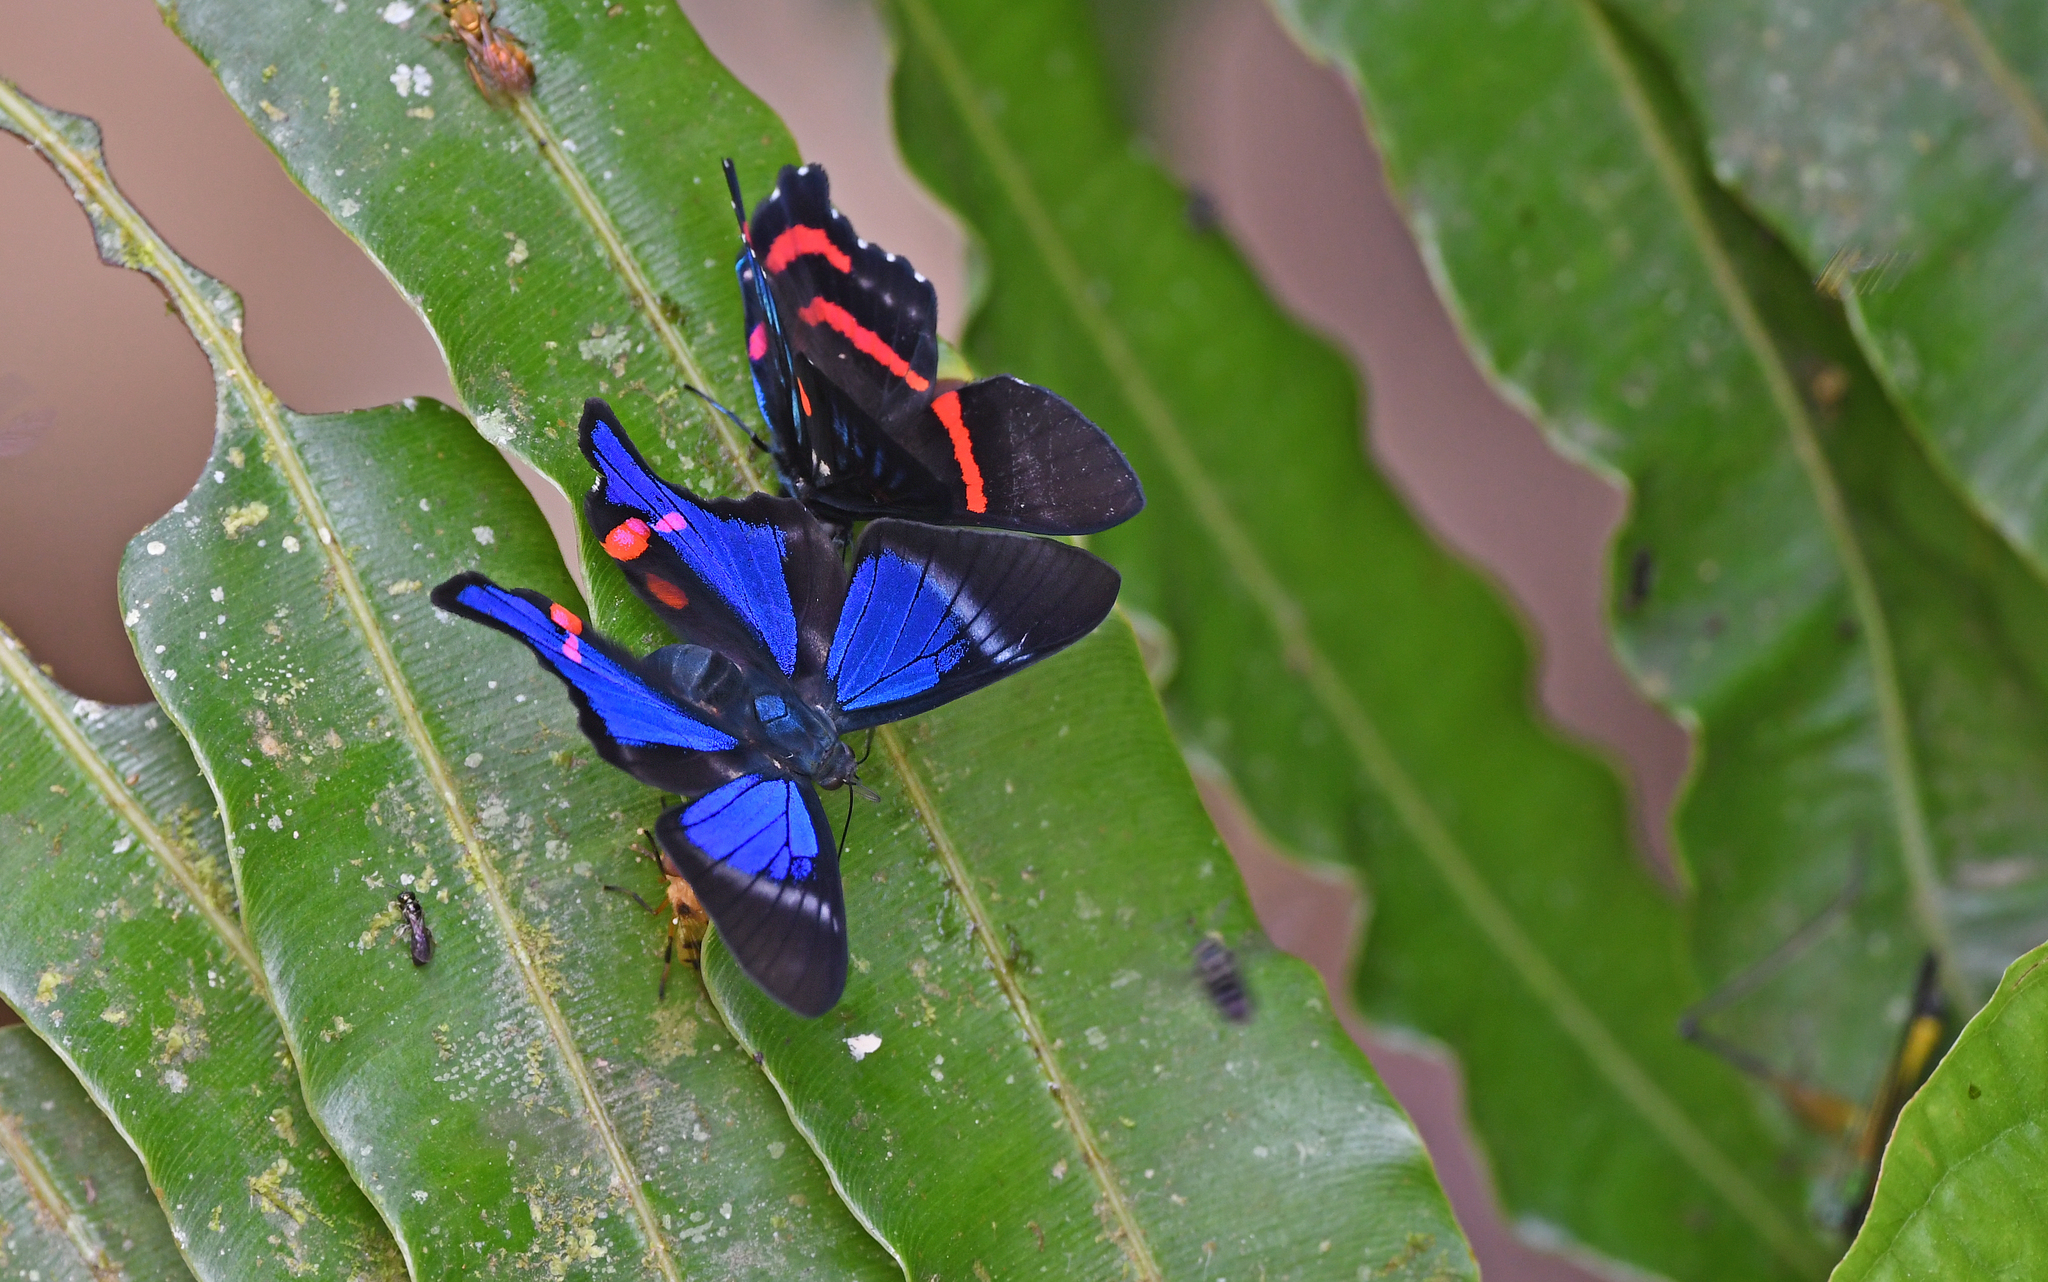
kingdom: Animalia
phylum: Arthropoda
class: Insecta
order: Lepidoptera
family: Riodinidae
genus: Rhetus
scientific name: Rhetus periander
